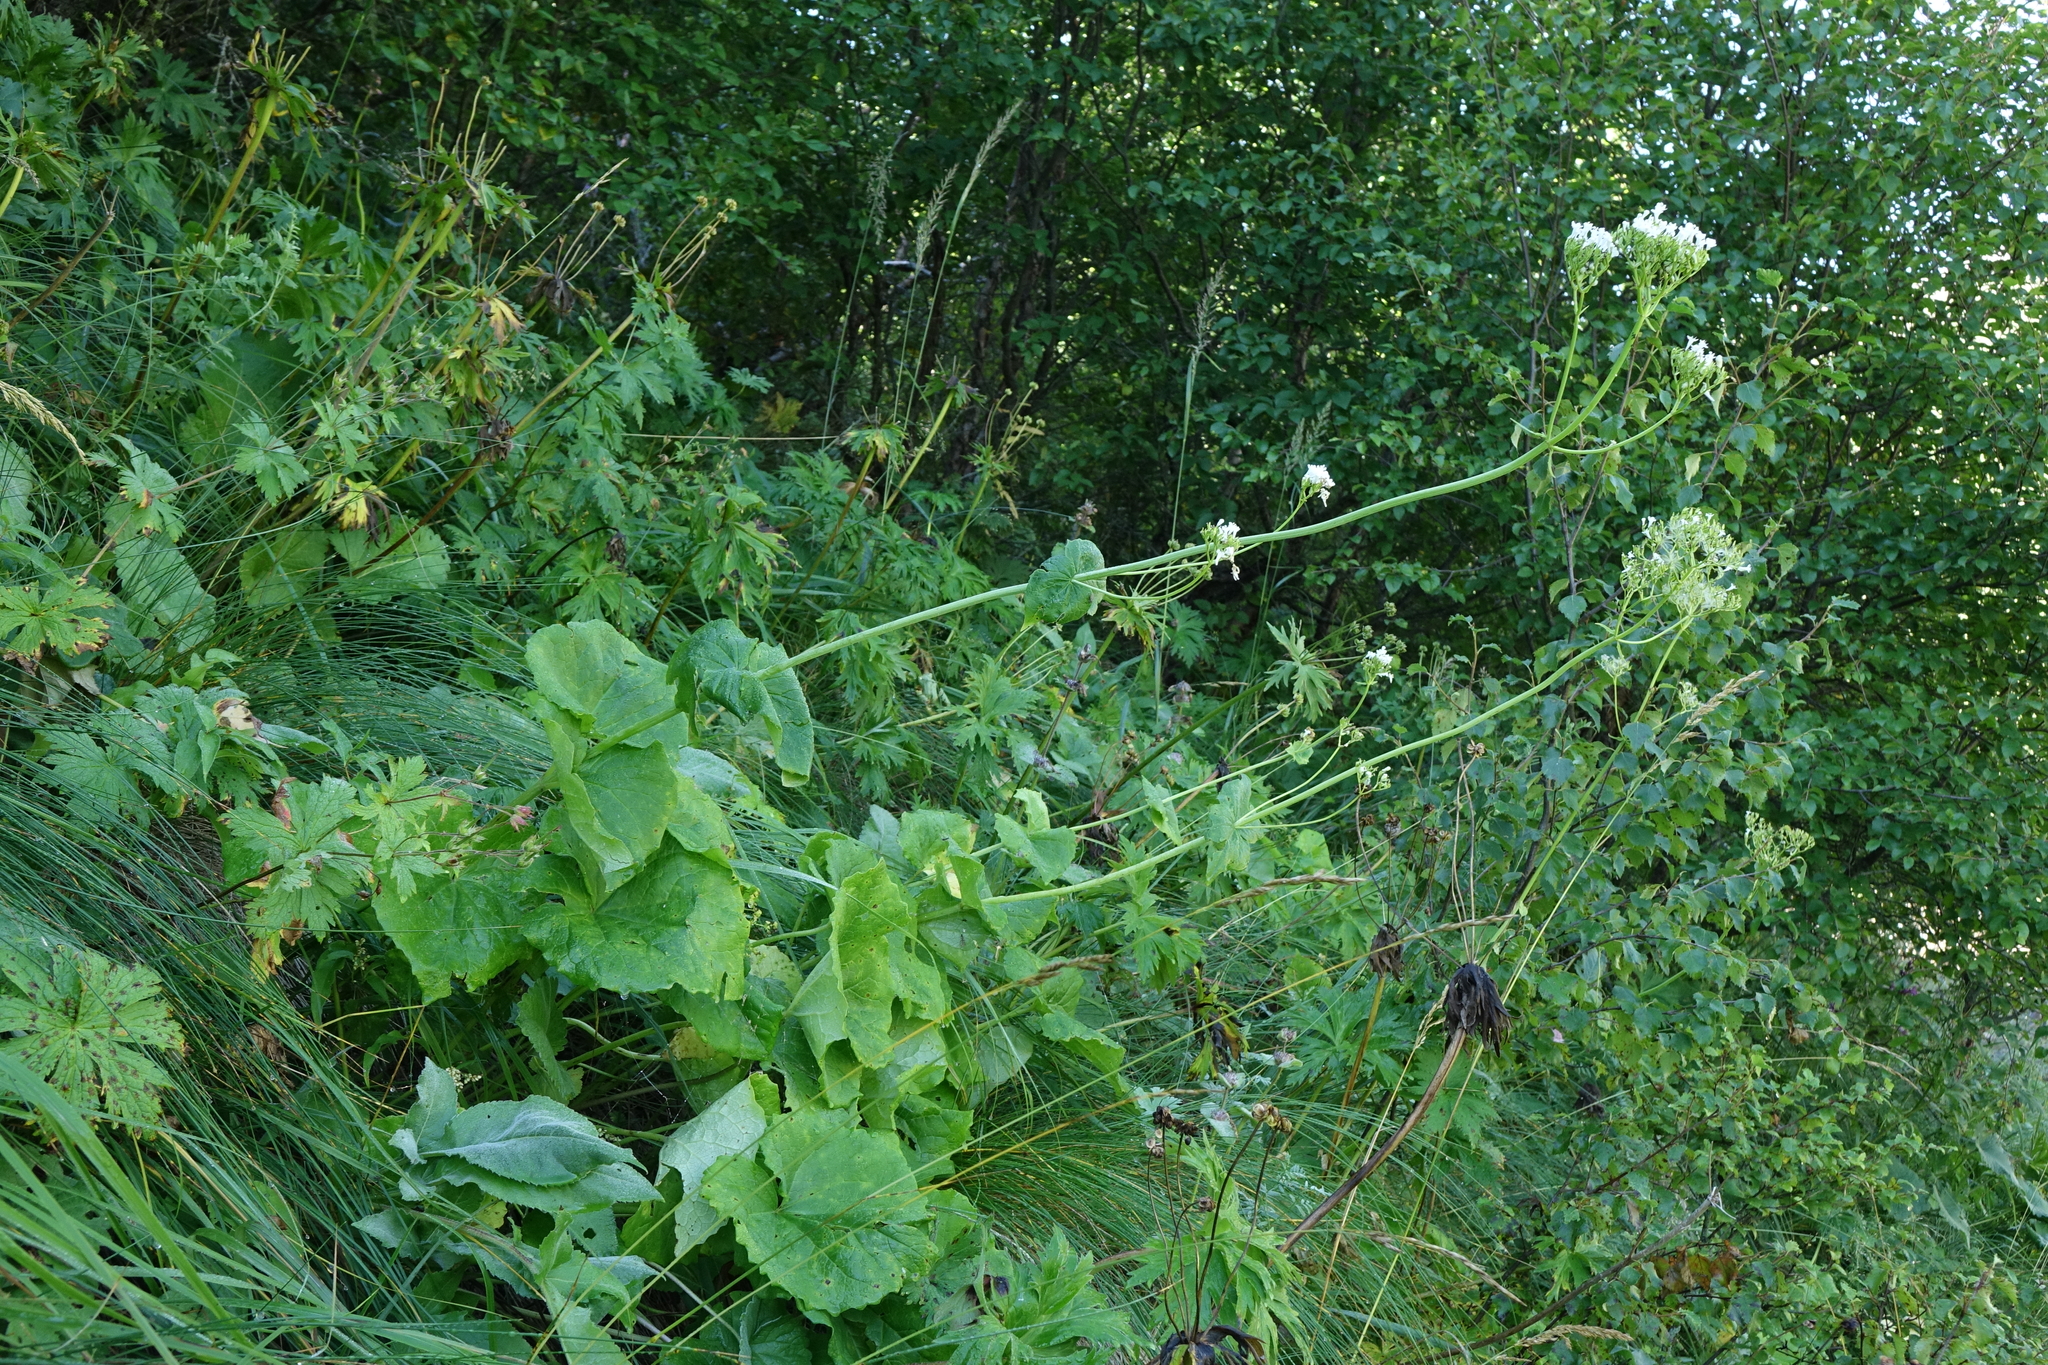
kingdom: Plantae
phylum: Tracheophyta
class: Magnoliopsida
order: Dipsacales
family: Caprifoliaceae
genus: Valeriana
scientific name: Valeriana alliariifolia
